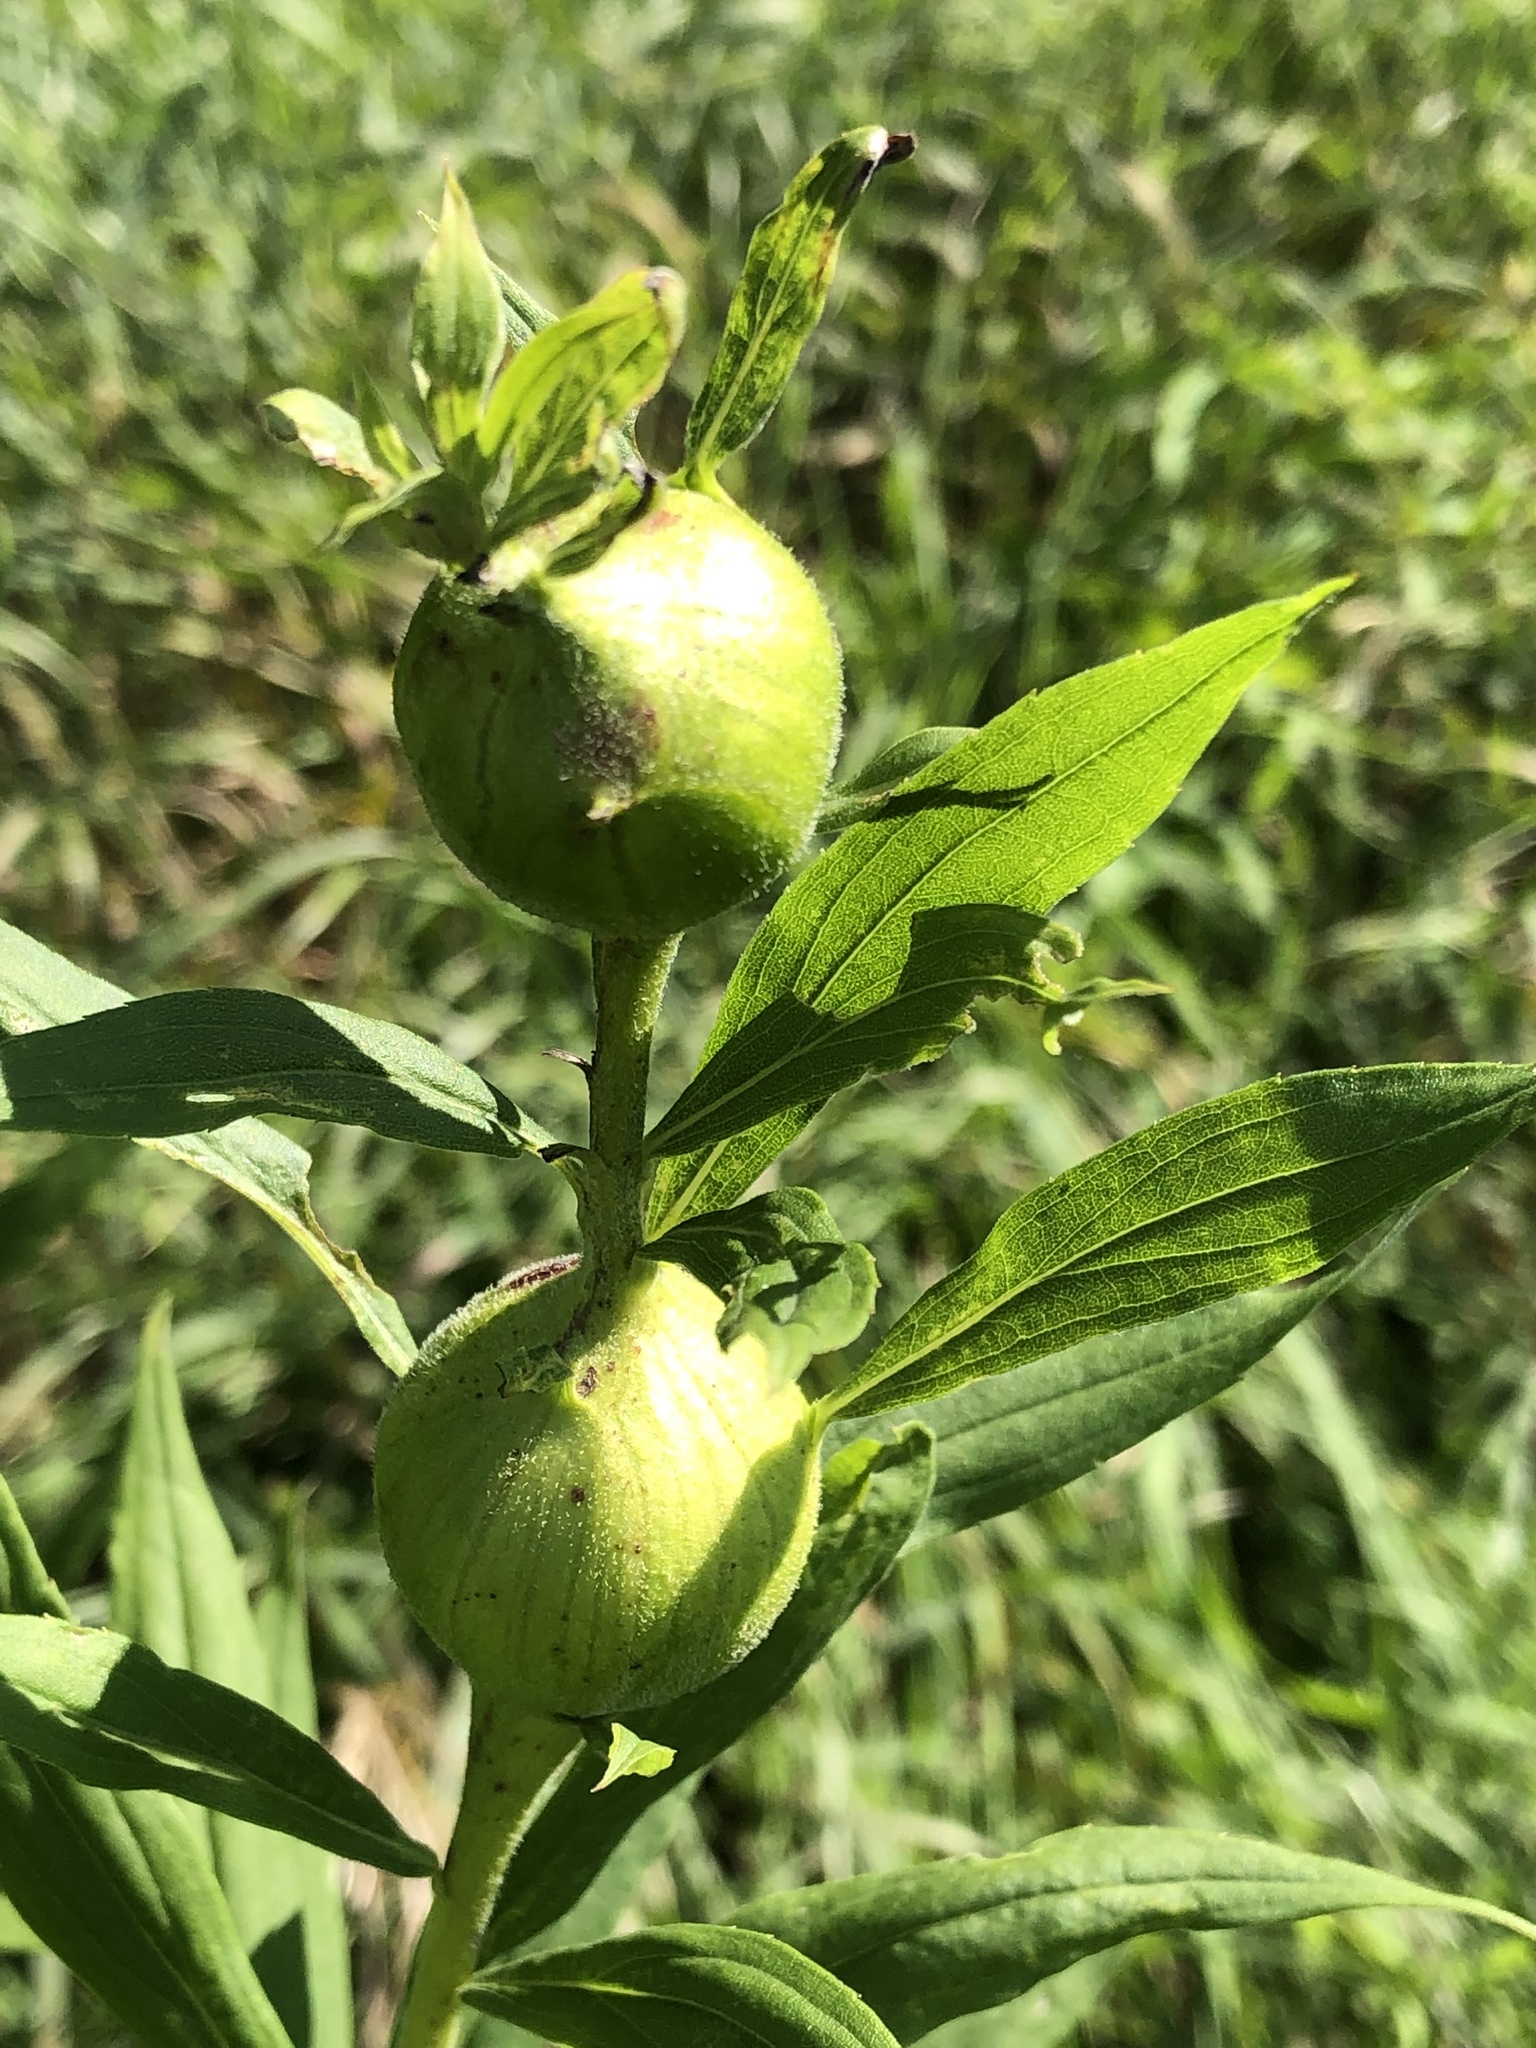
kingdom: Animalia
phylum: Arthropoda
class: Insecta
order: Diptera
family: Tephritidae
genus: Eurosta
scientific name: Eurosta solidaginis
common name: Goldenrod gall fly
